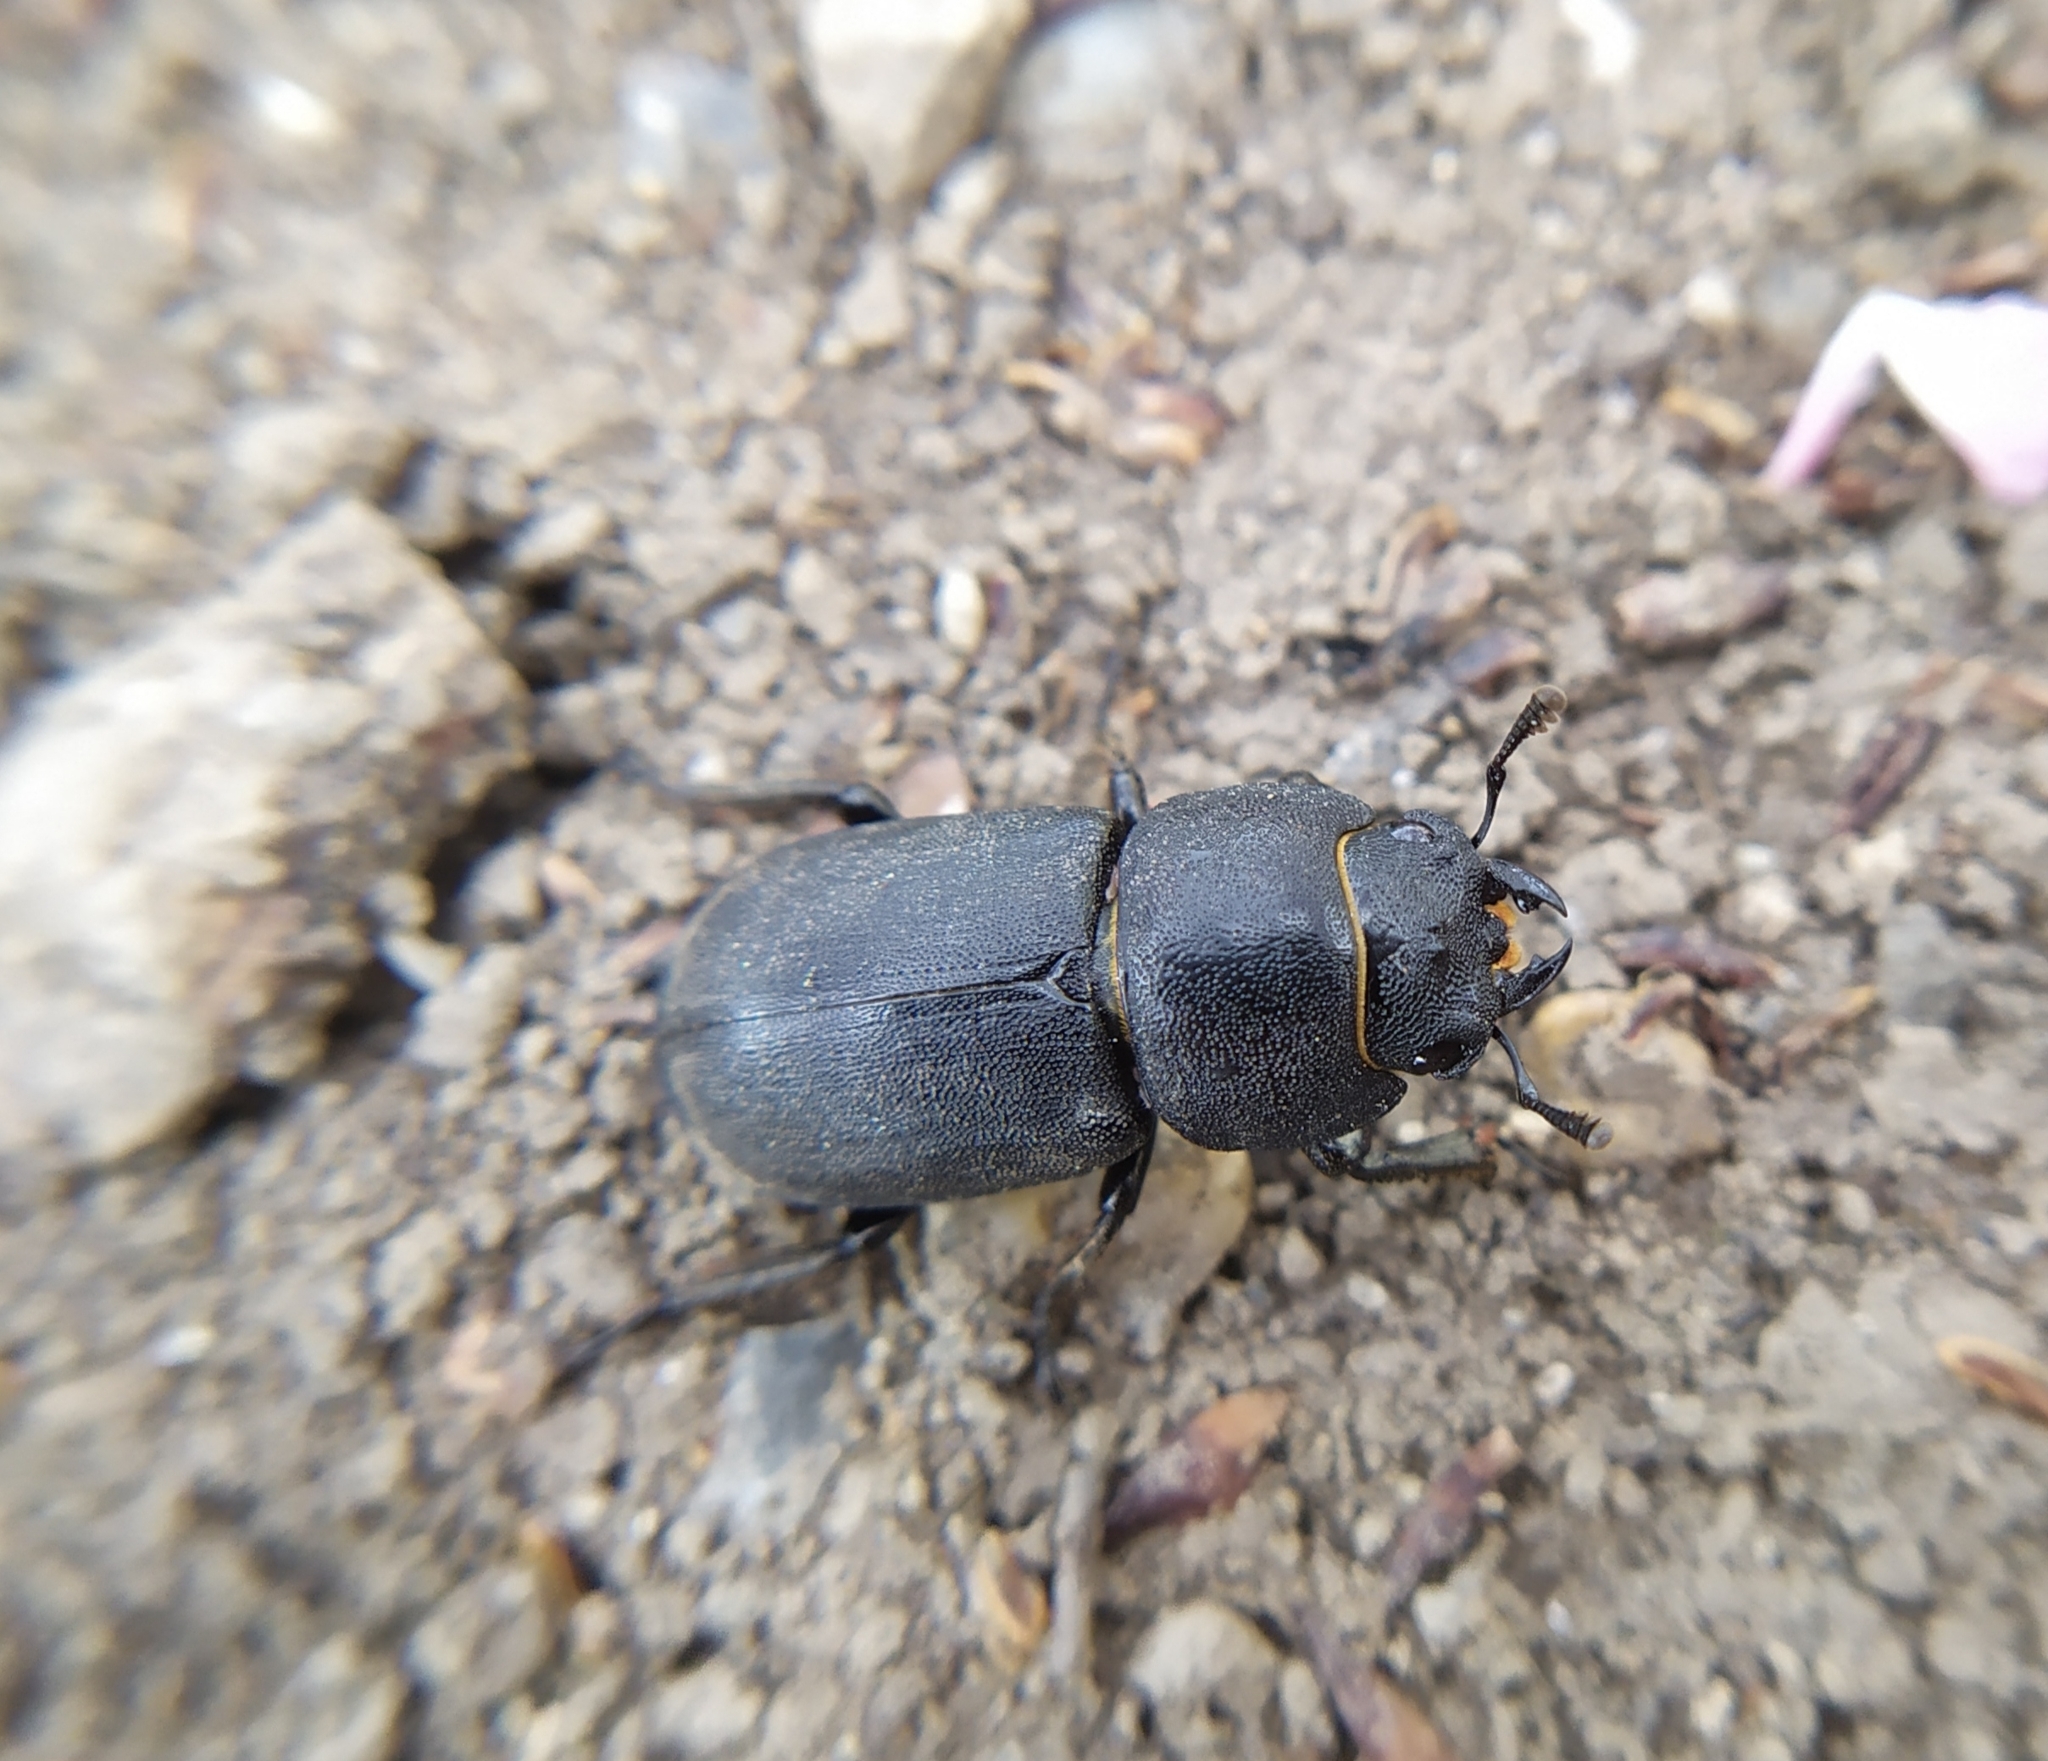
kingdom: Animalia
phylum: Arthropoda
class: Insecta
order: Coleoptera
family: Lucanidae
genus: Dorcus
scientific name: Dorcus parallelipipedus
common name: Lesser stag beetle
